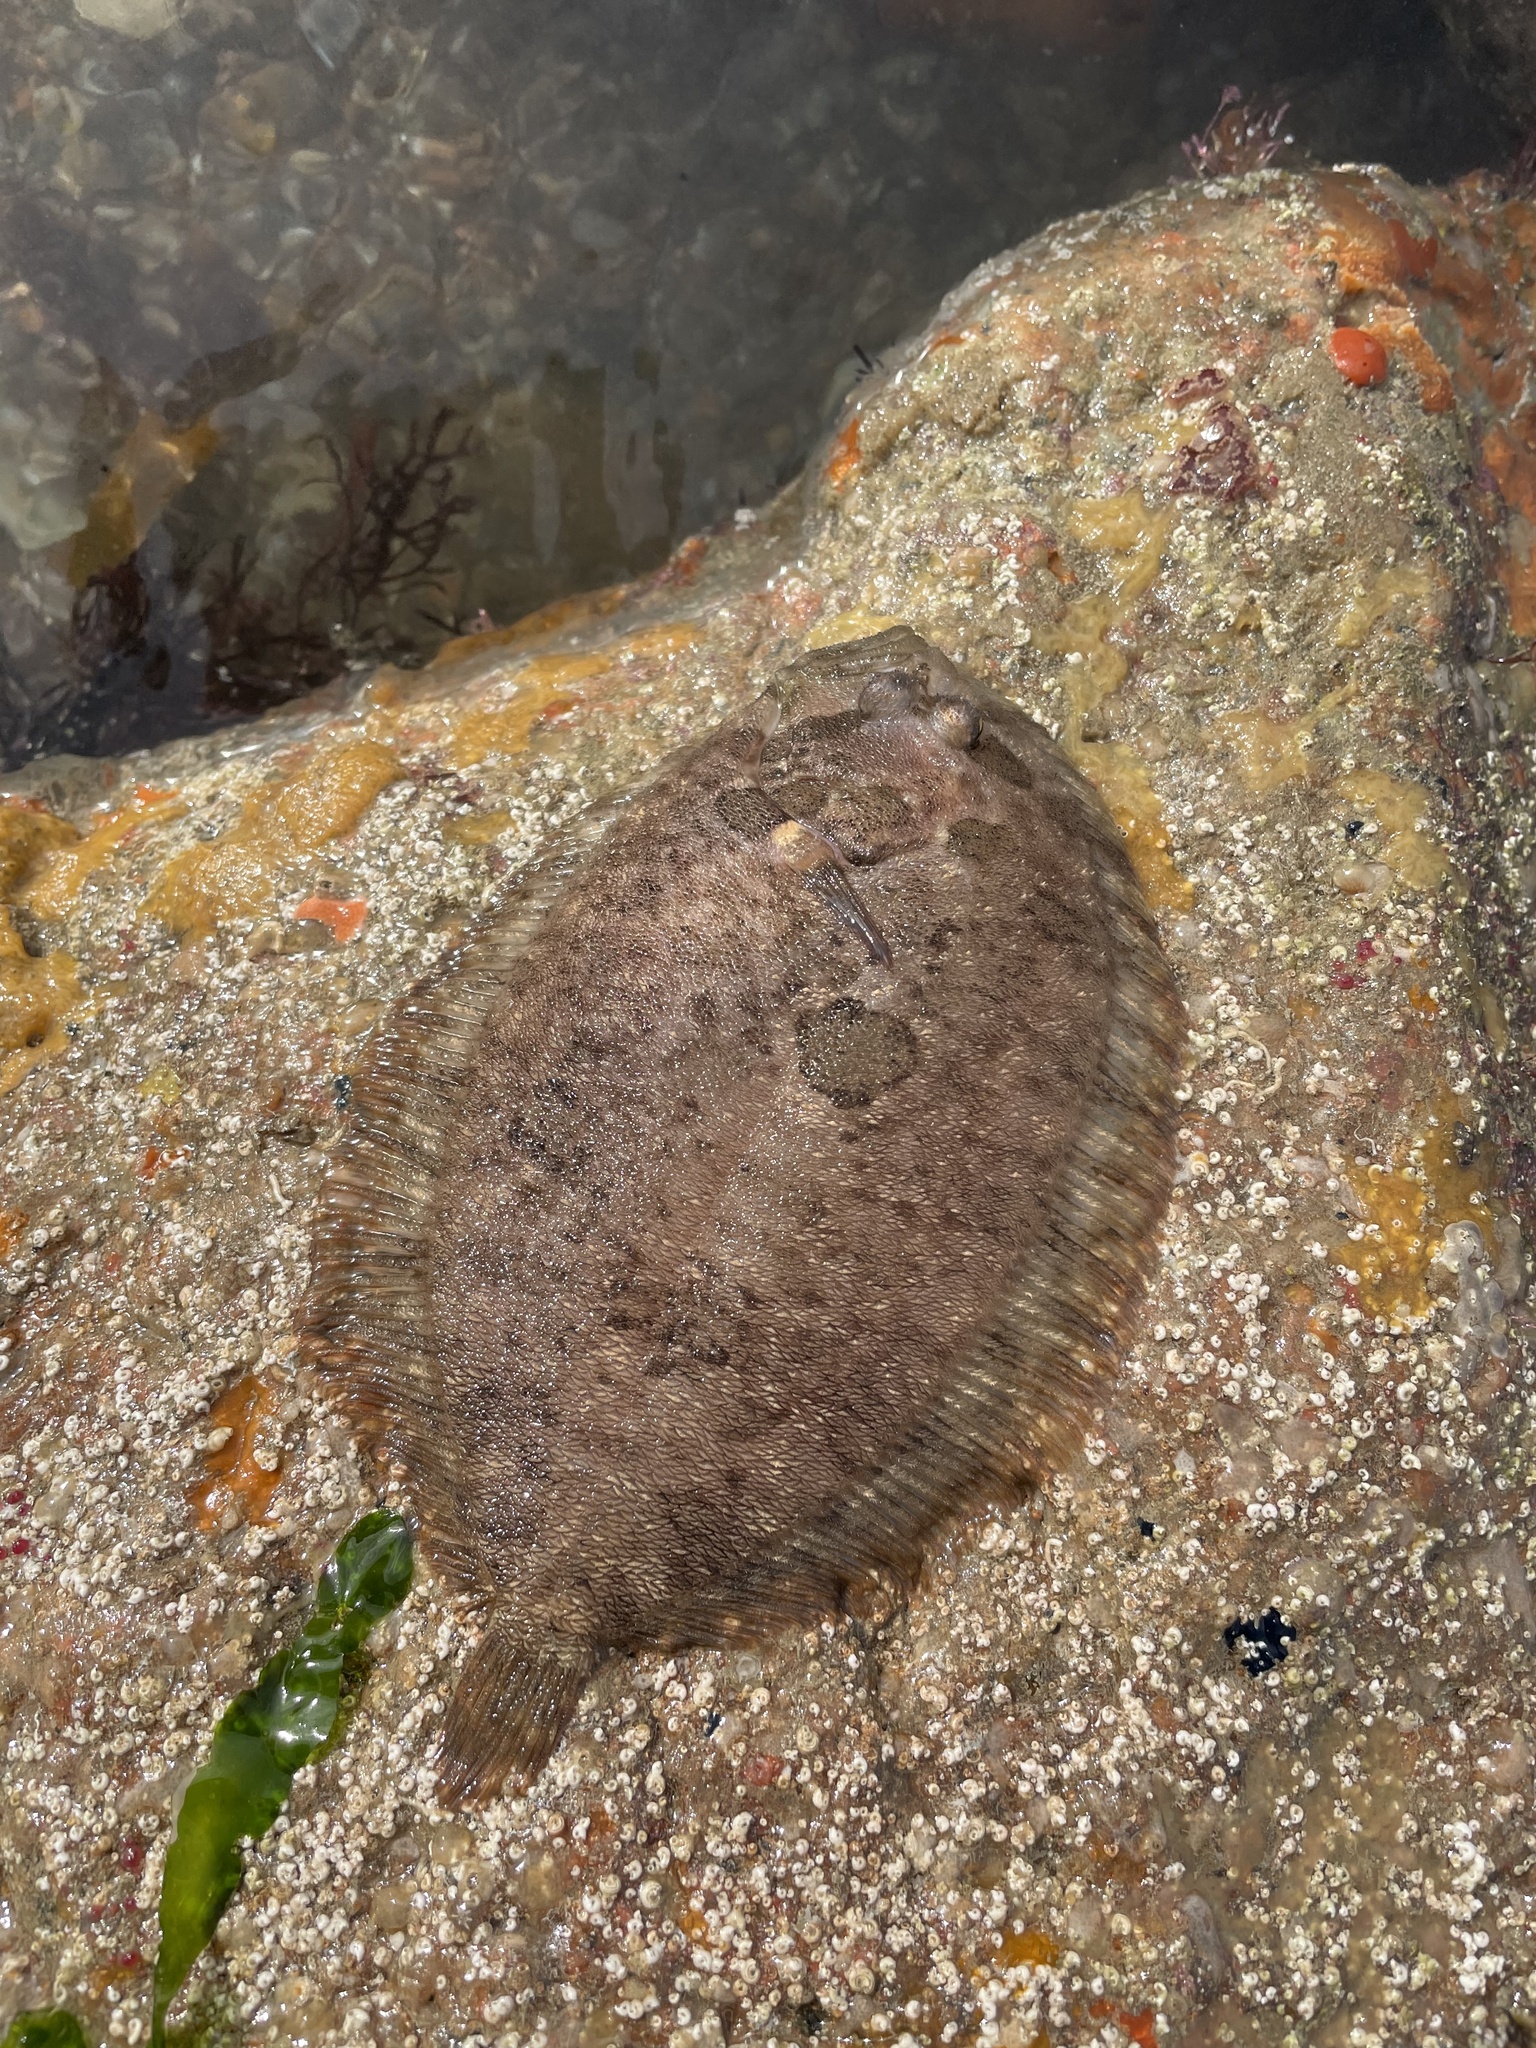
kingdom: Animalia
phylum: Chordata
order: Pleuronectiformes
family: Scophthalmidae
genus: Zeugopterus
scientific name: Zeugopterus punctatus
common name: Topknot
